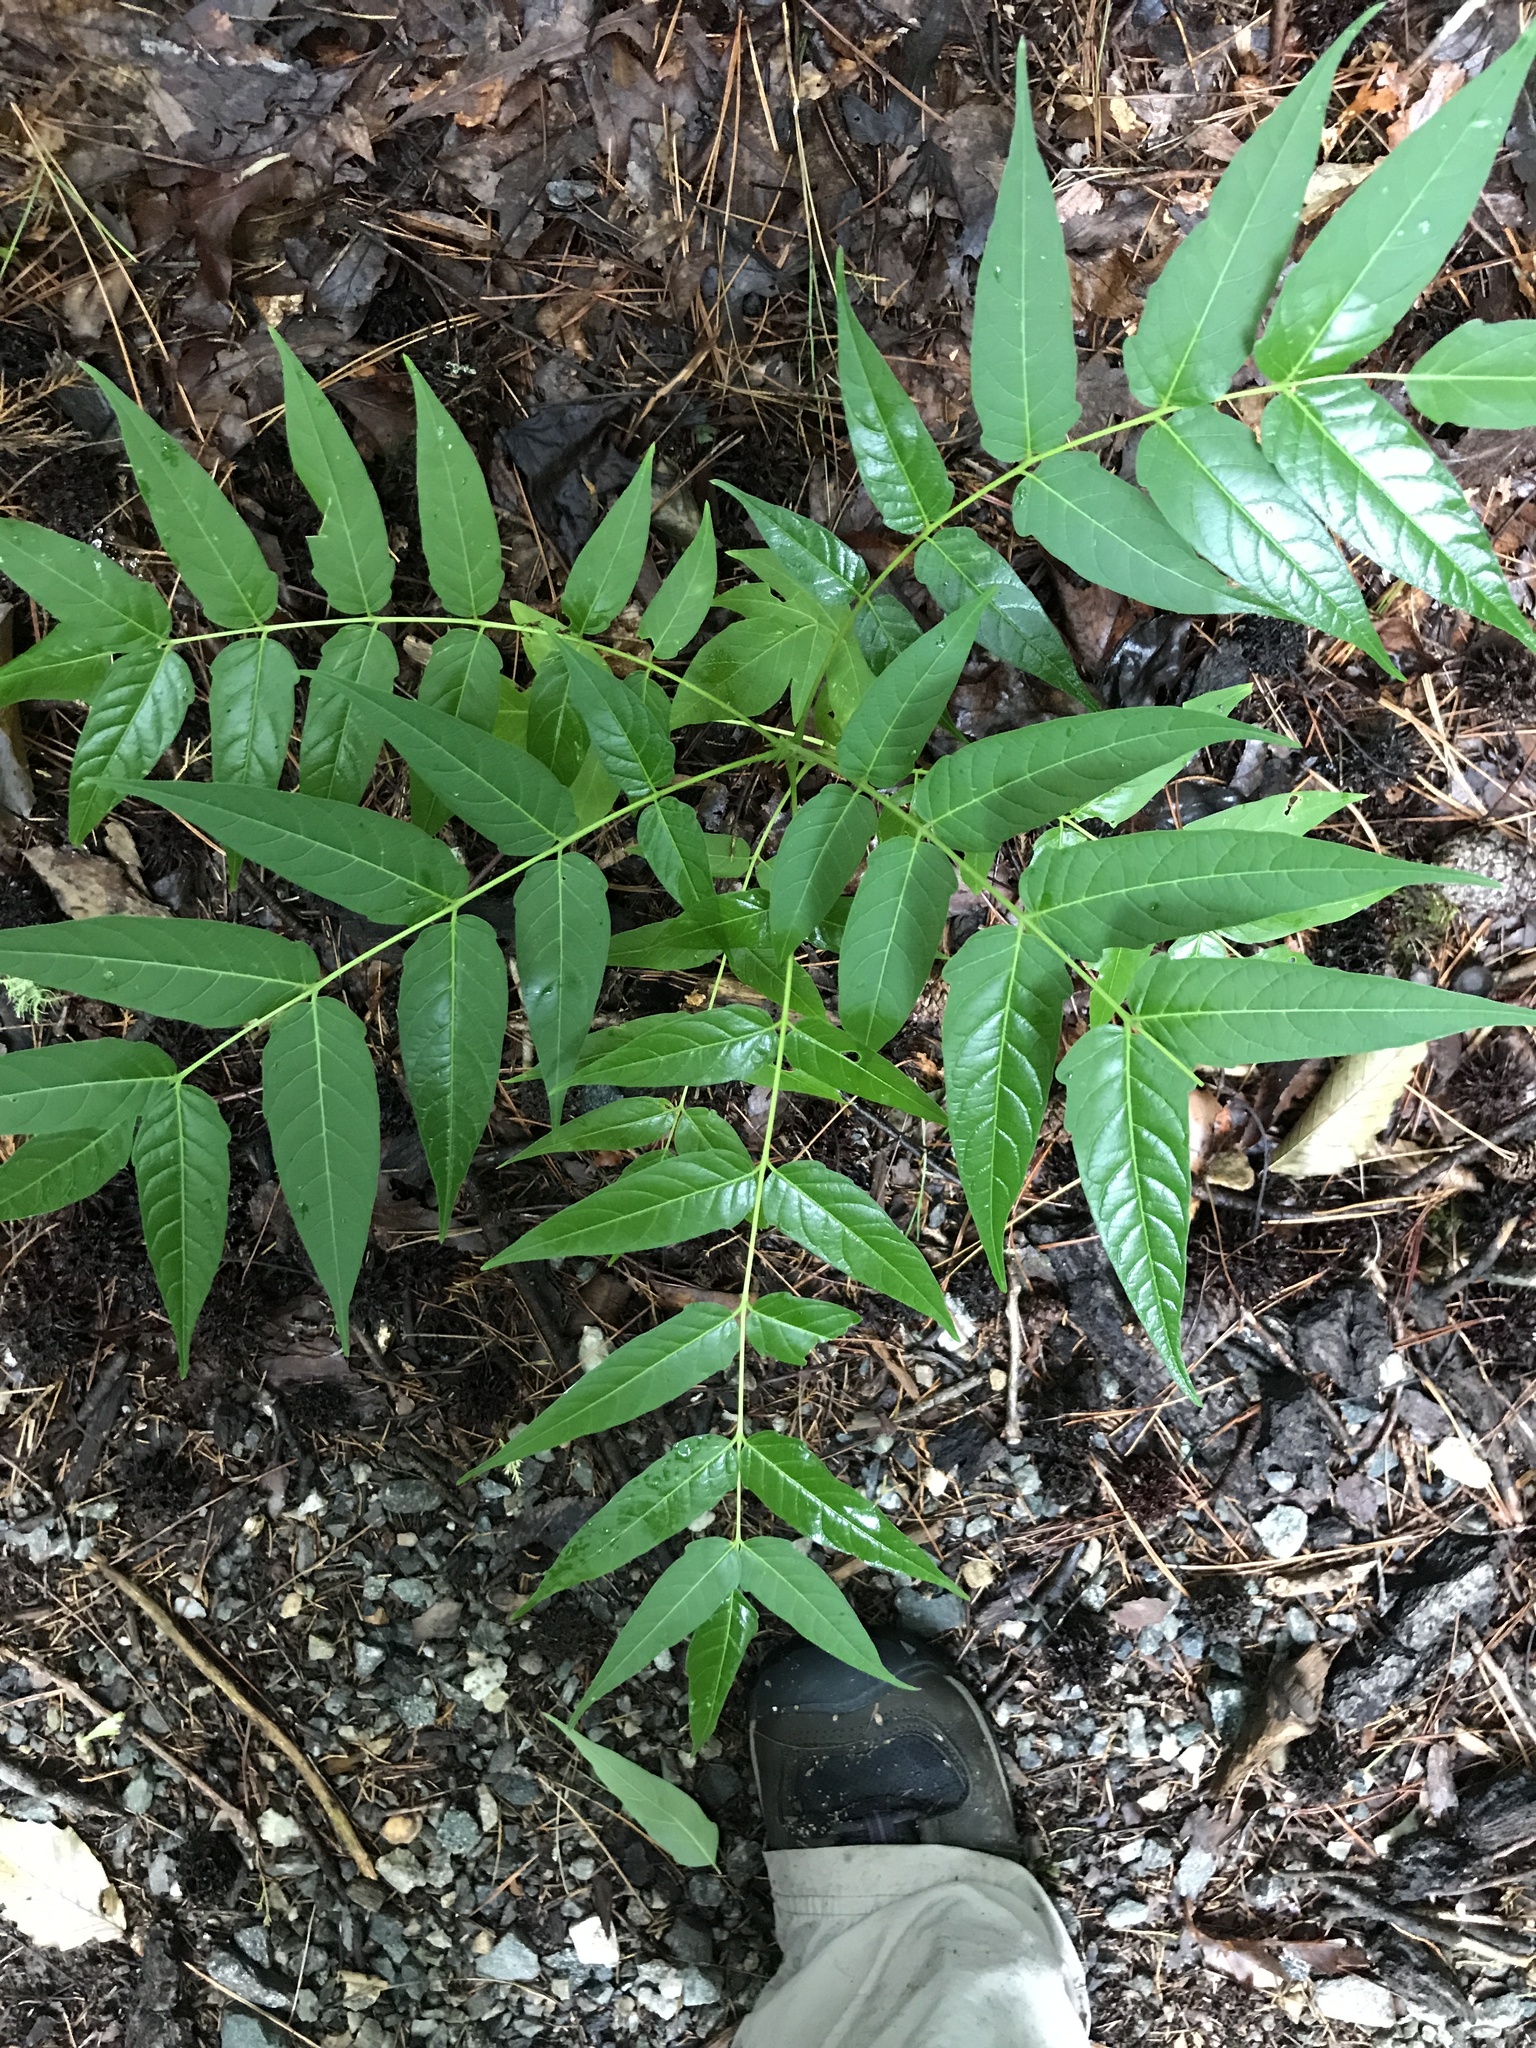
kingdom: Plantae
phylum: Tracheophyta
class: Magnoliopsida
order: Sapindales
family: Simaroubaceae
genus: Ailanthus
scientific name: Ailanthus altissima
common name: Tree-of-heaven
